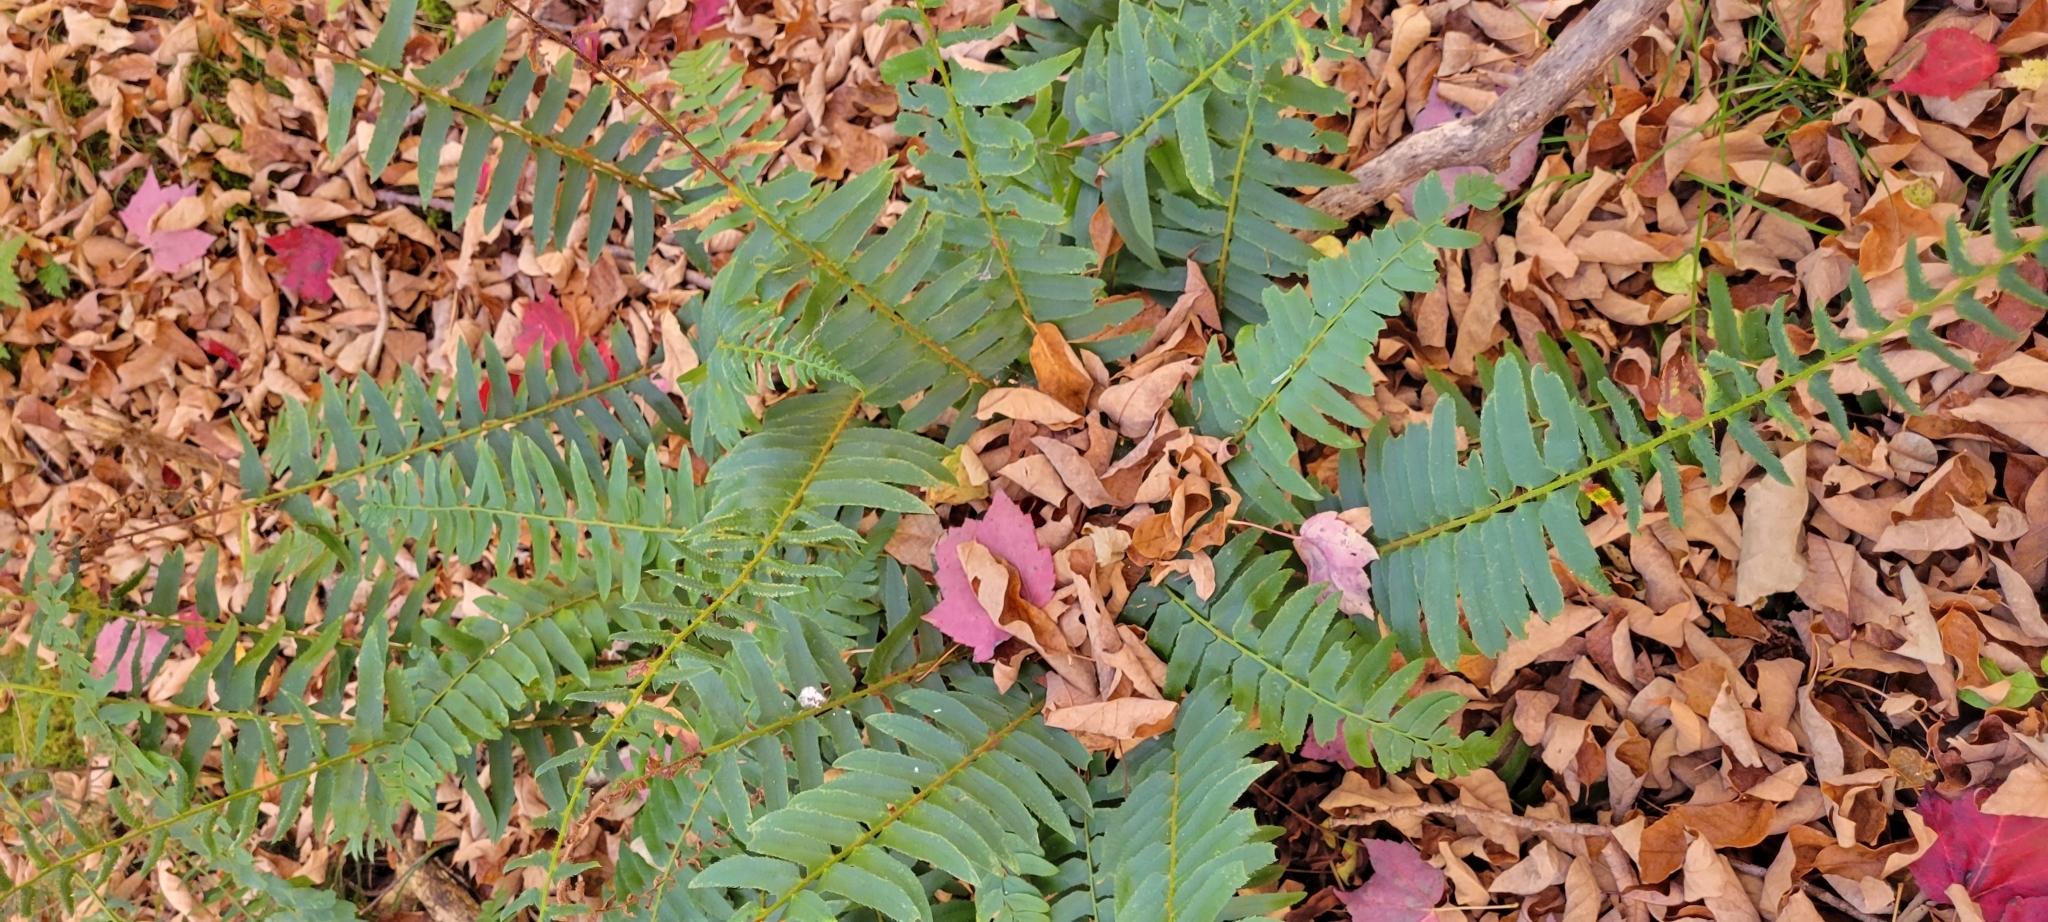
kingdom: Plantae
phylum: Tracheophyta
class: Polypodiopsida
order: Polypodiales
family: Dryopteridaceae
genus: Polystichum
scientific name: Polystichum acrostichoides
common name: Christmas fern
